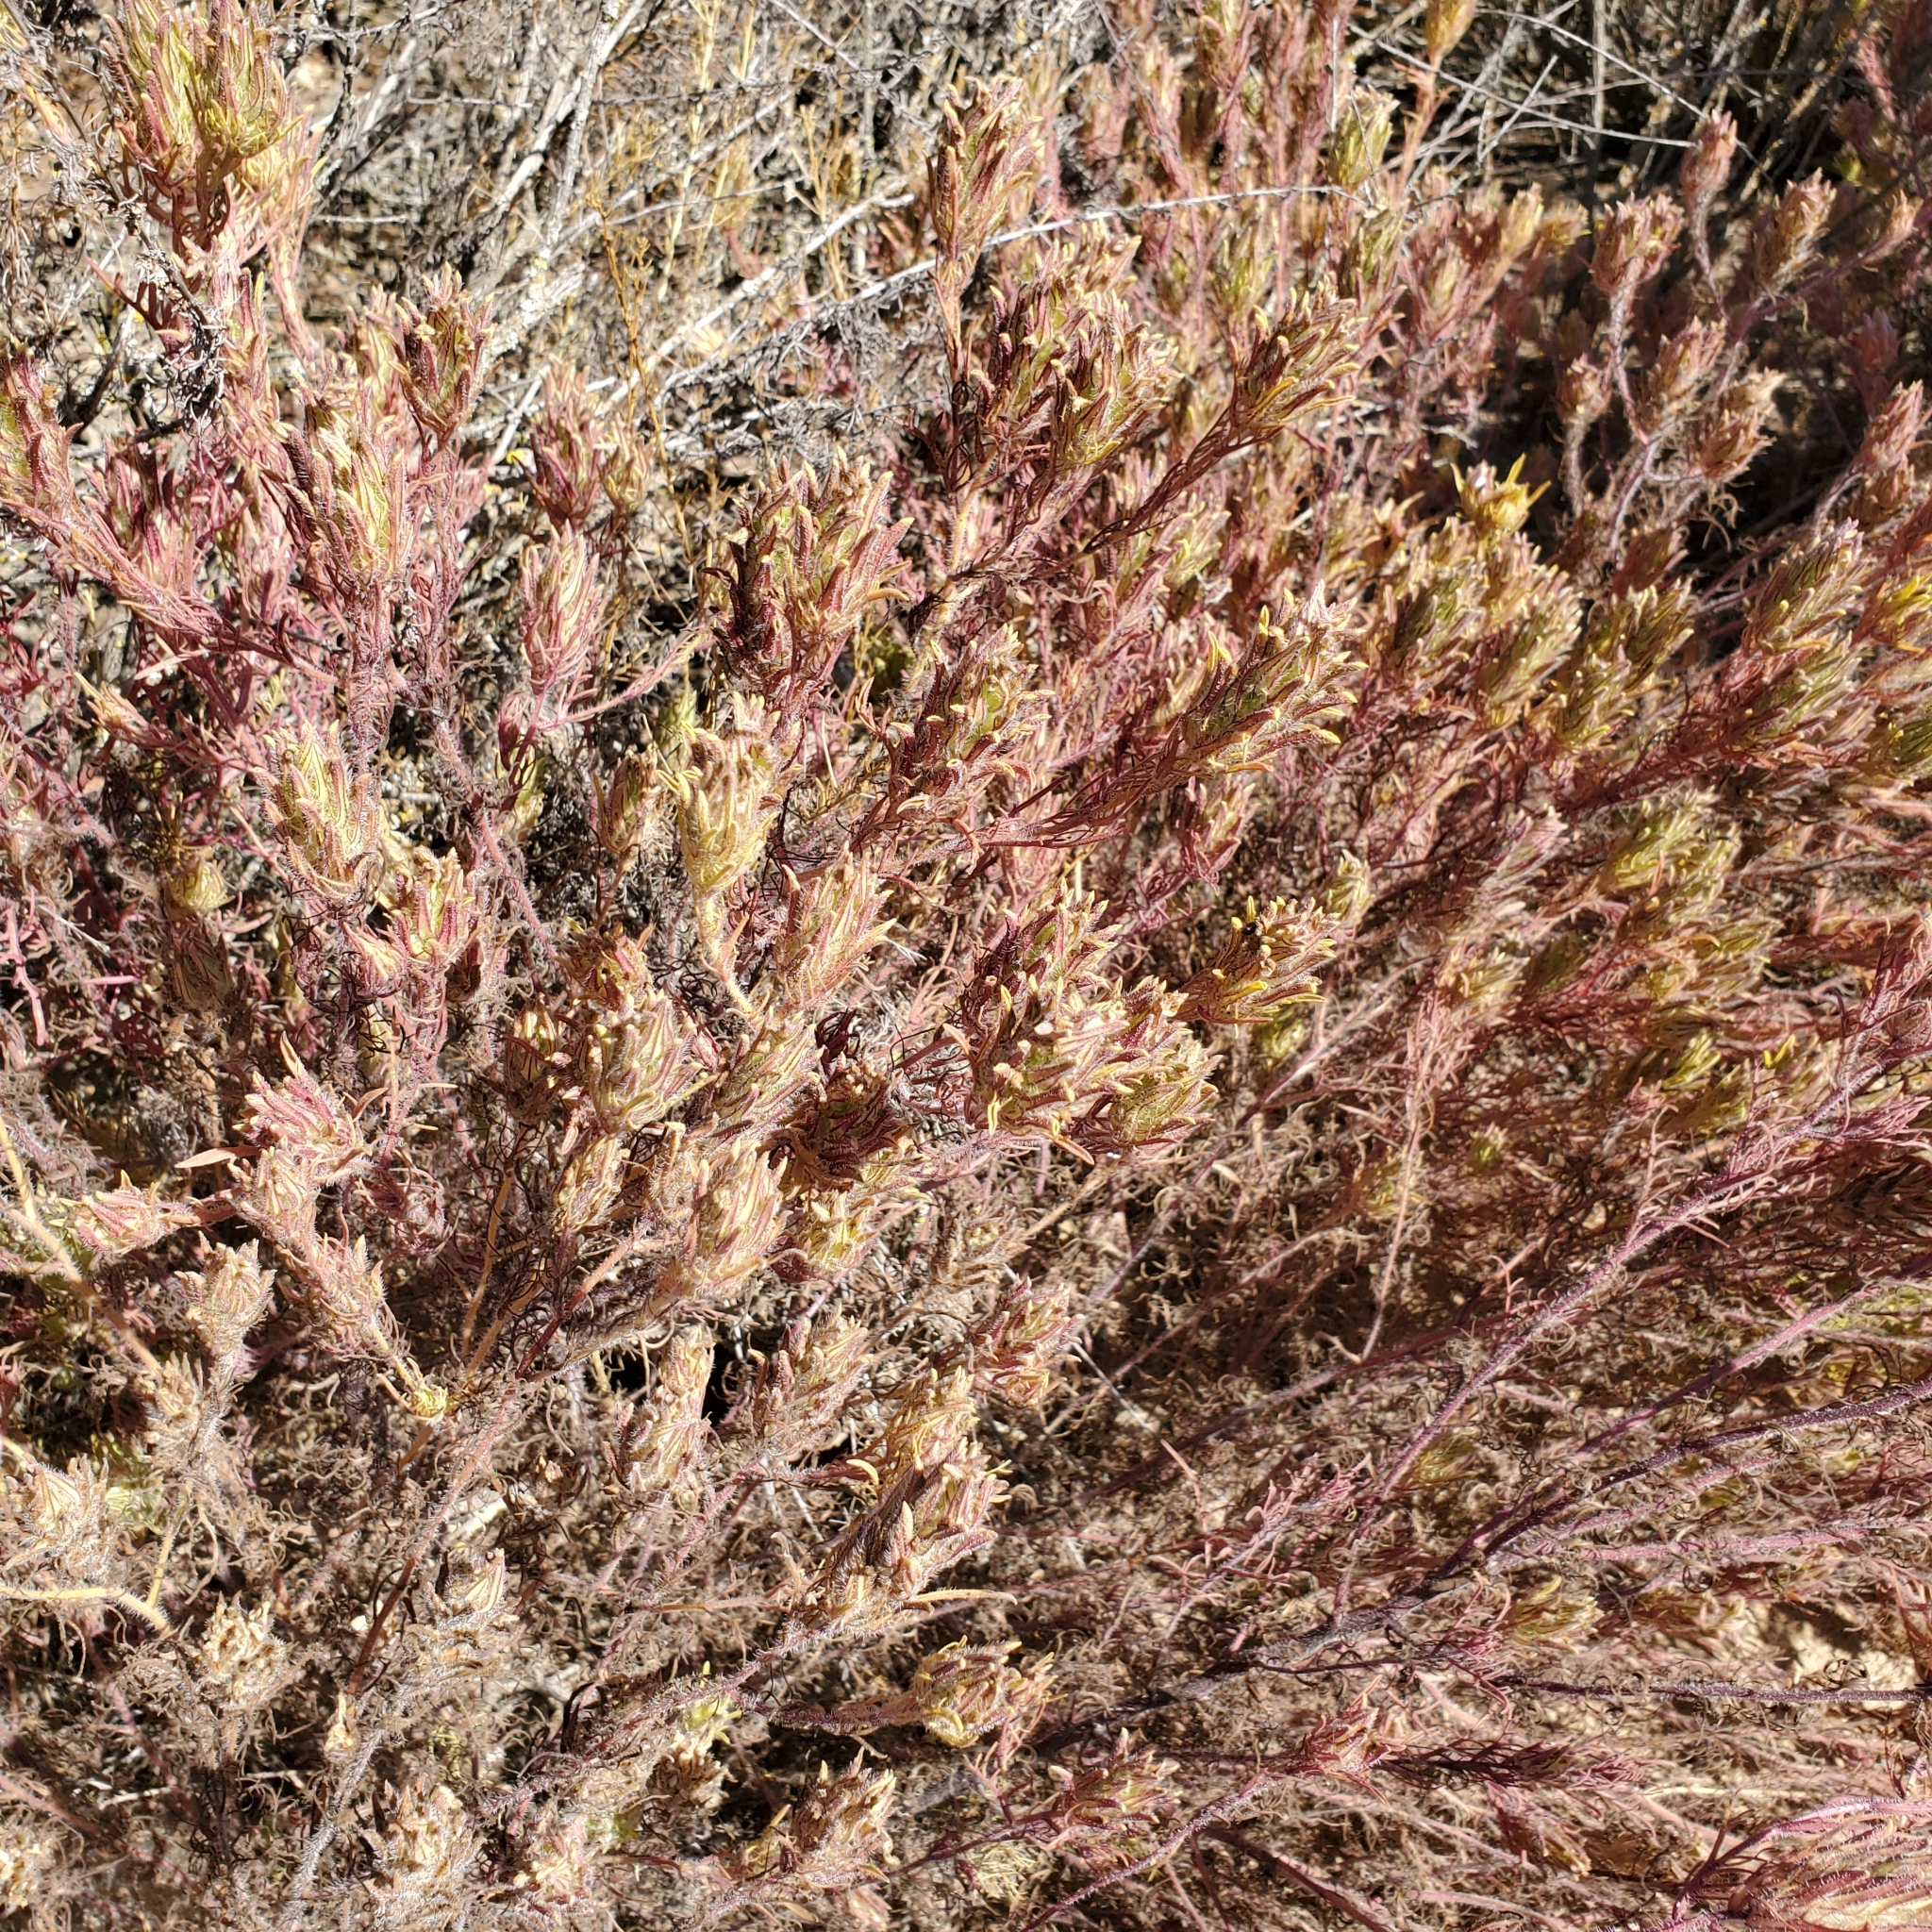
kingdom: Plantae
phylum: Tracheophyta
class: Magnoliopsida
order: Lamiales
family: Orobanchaceae
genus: Dicranostegia
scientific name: Dicranostegia orcuttiana
